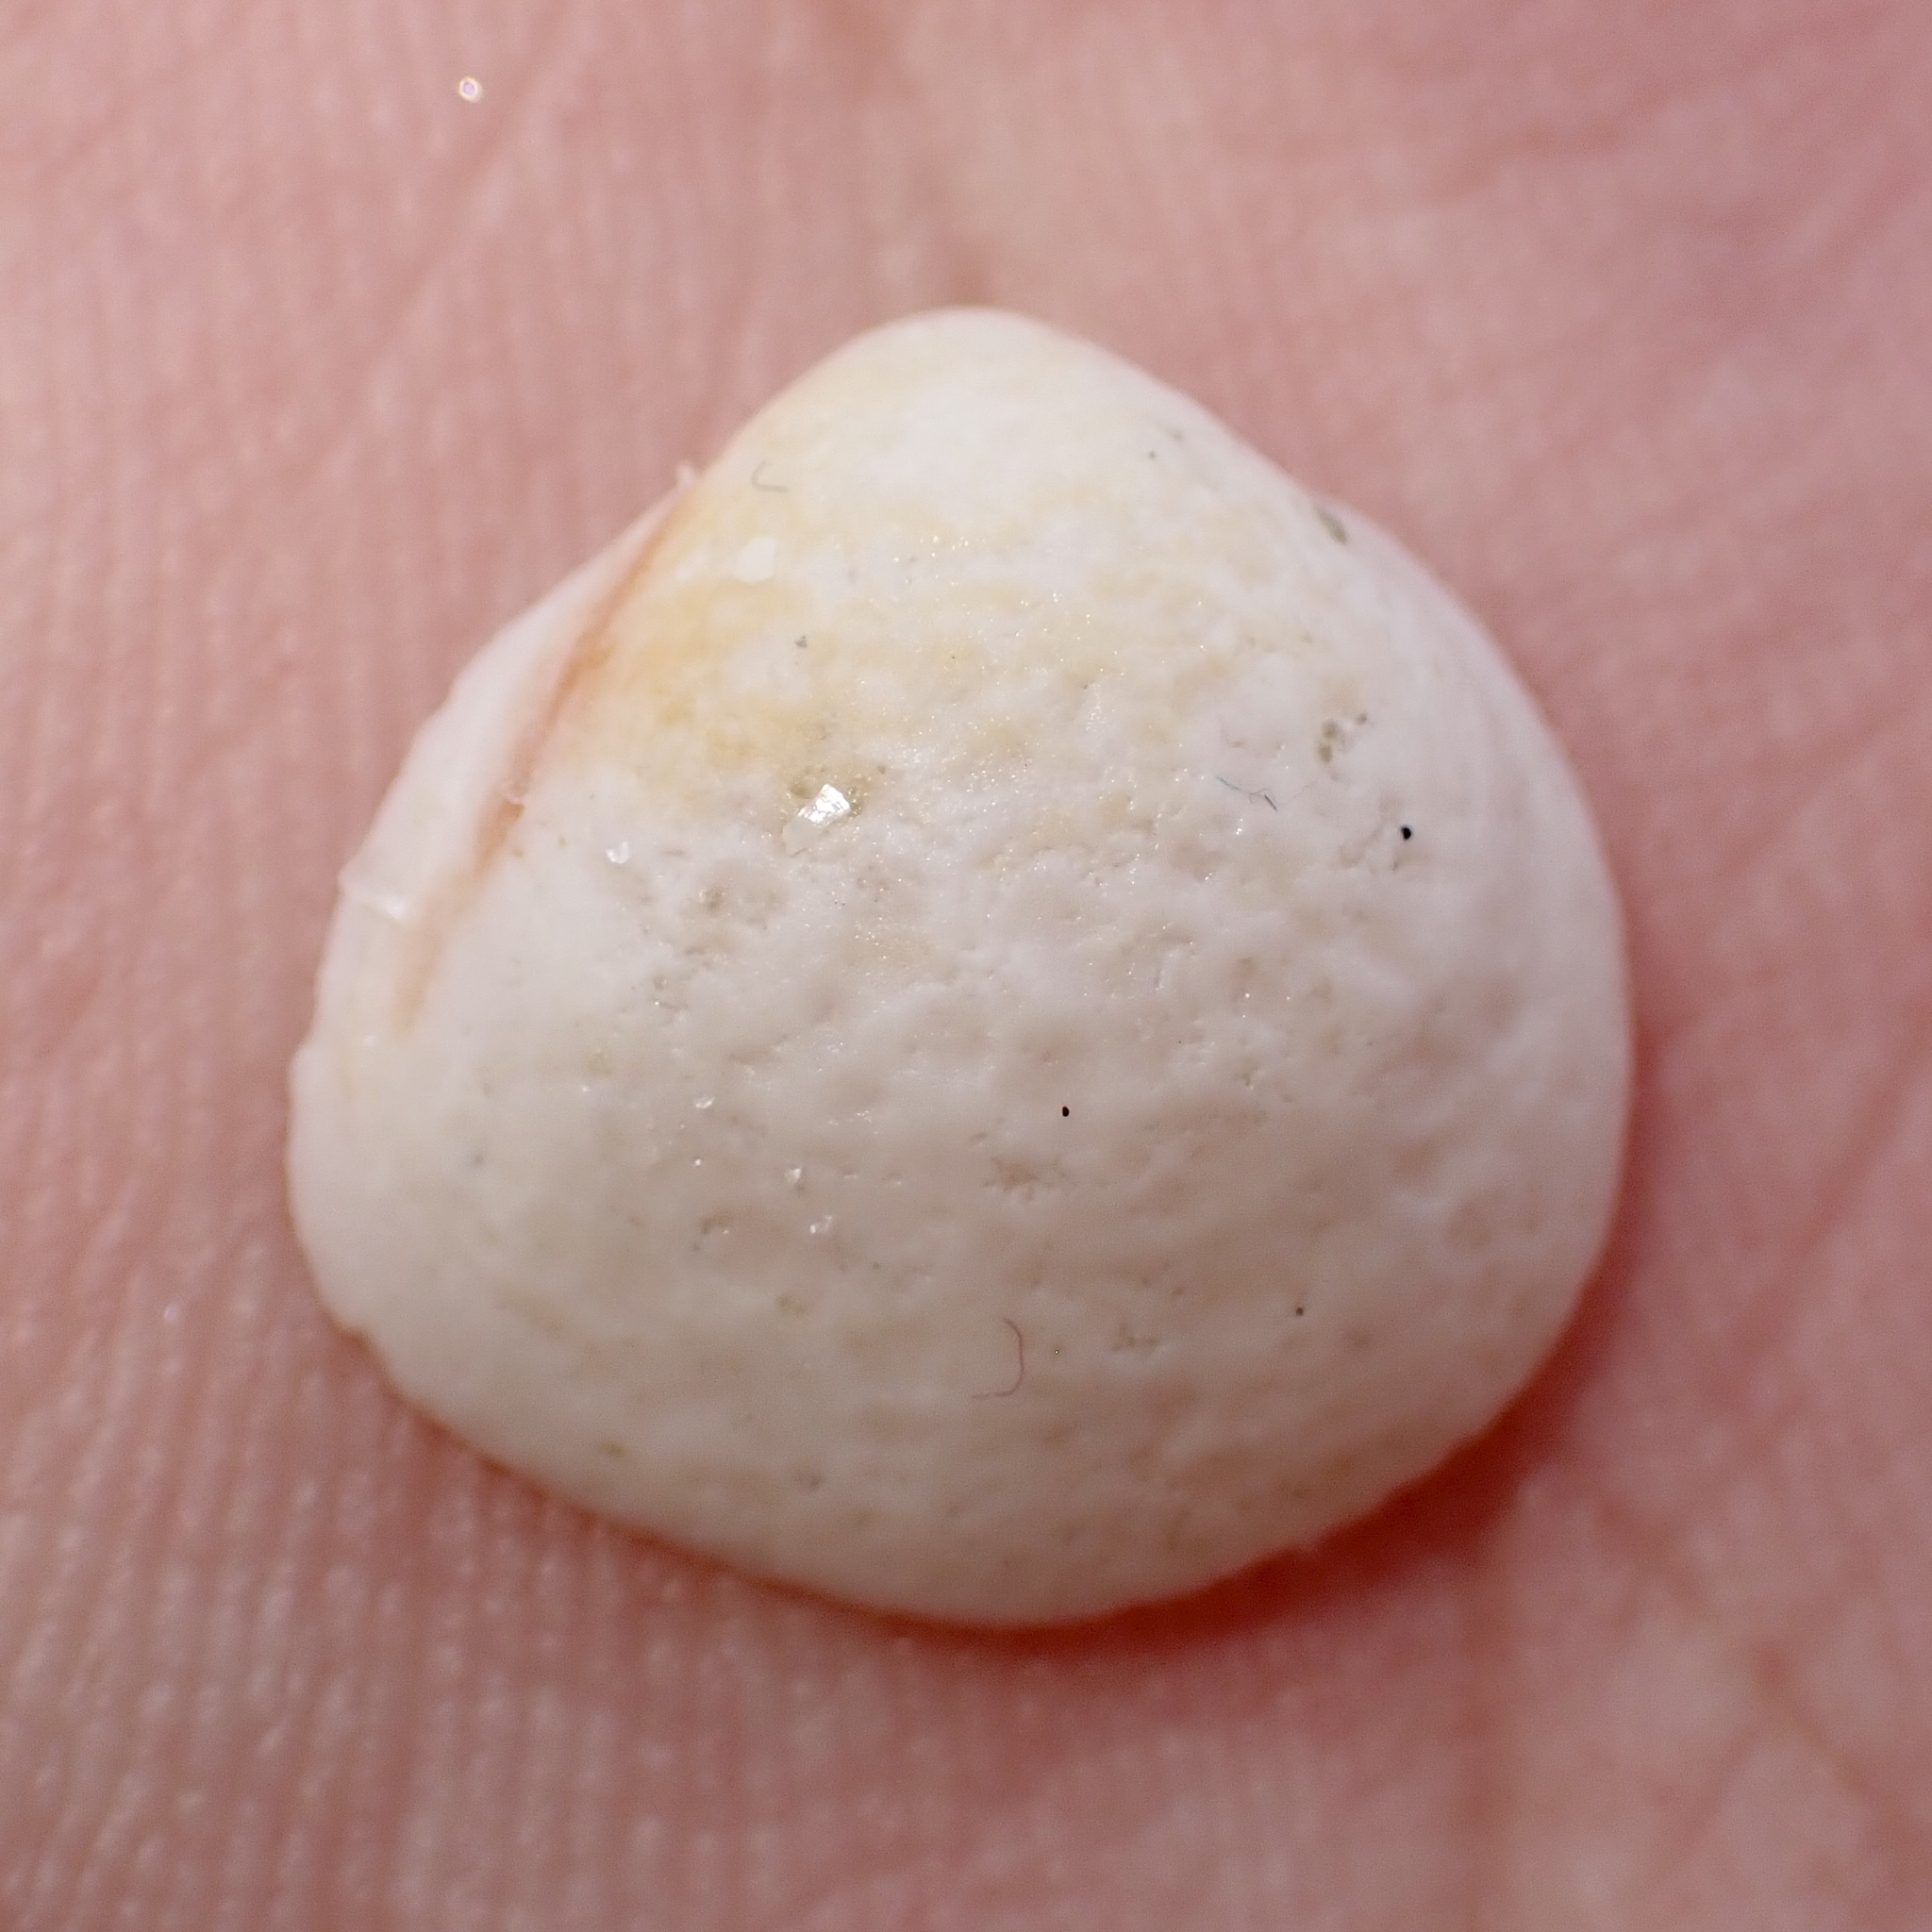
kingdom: Animalia
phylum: Mollusca
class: Bivalvia
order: Cardiida
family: Cardiidae
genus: Laevicardium
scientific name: Laevicardium mortoni
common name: Morton eggcockle
